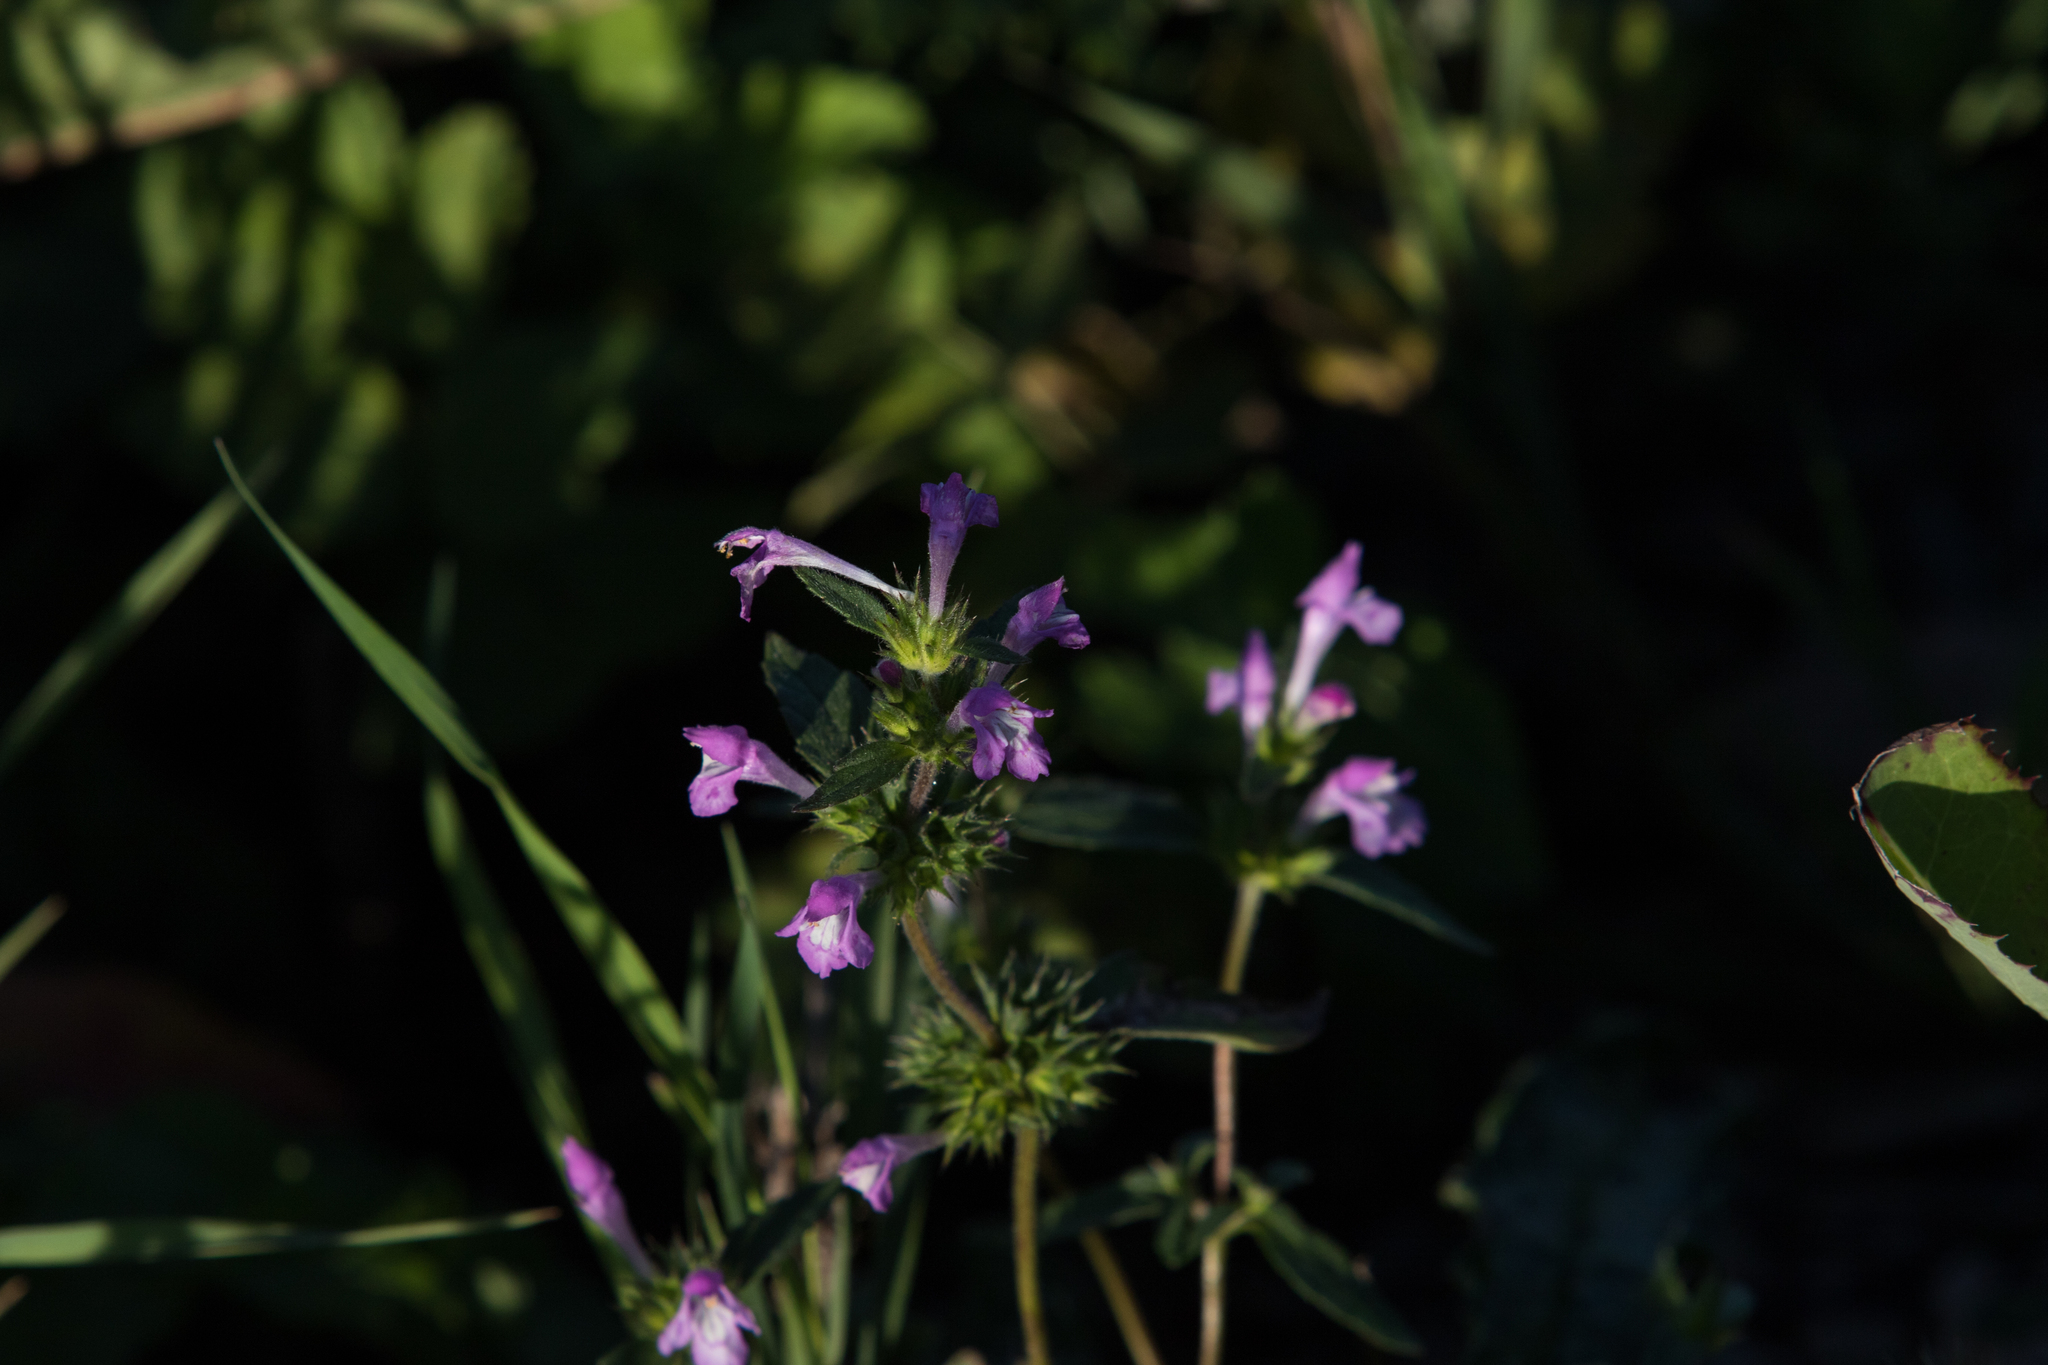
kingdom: Plantae
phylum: Tracheophyta
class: Magnoliopsida
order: Lamiales
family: Lamiaceae
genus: Galeopsis
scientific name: Galeopsis ladanum
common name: Broad-leaved hemp-nettle
